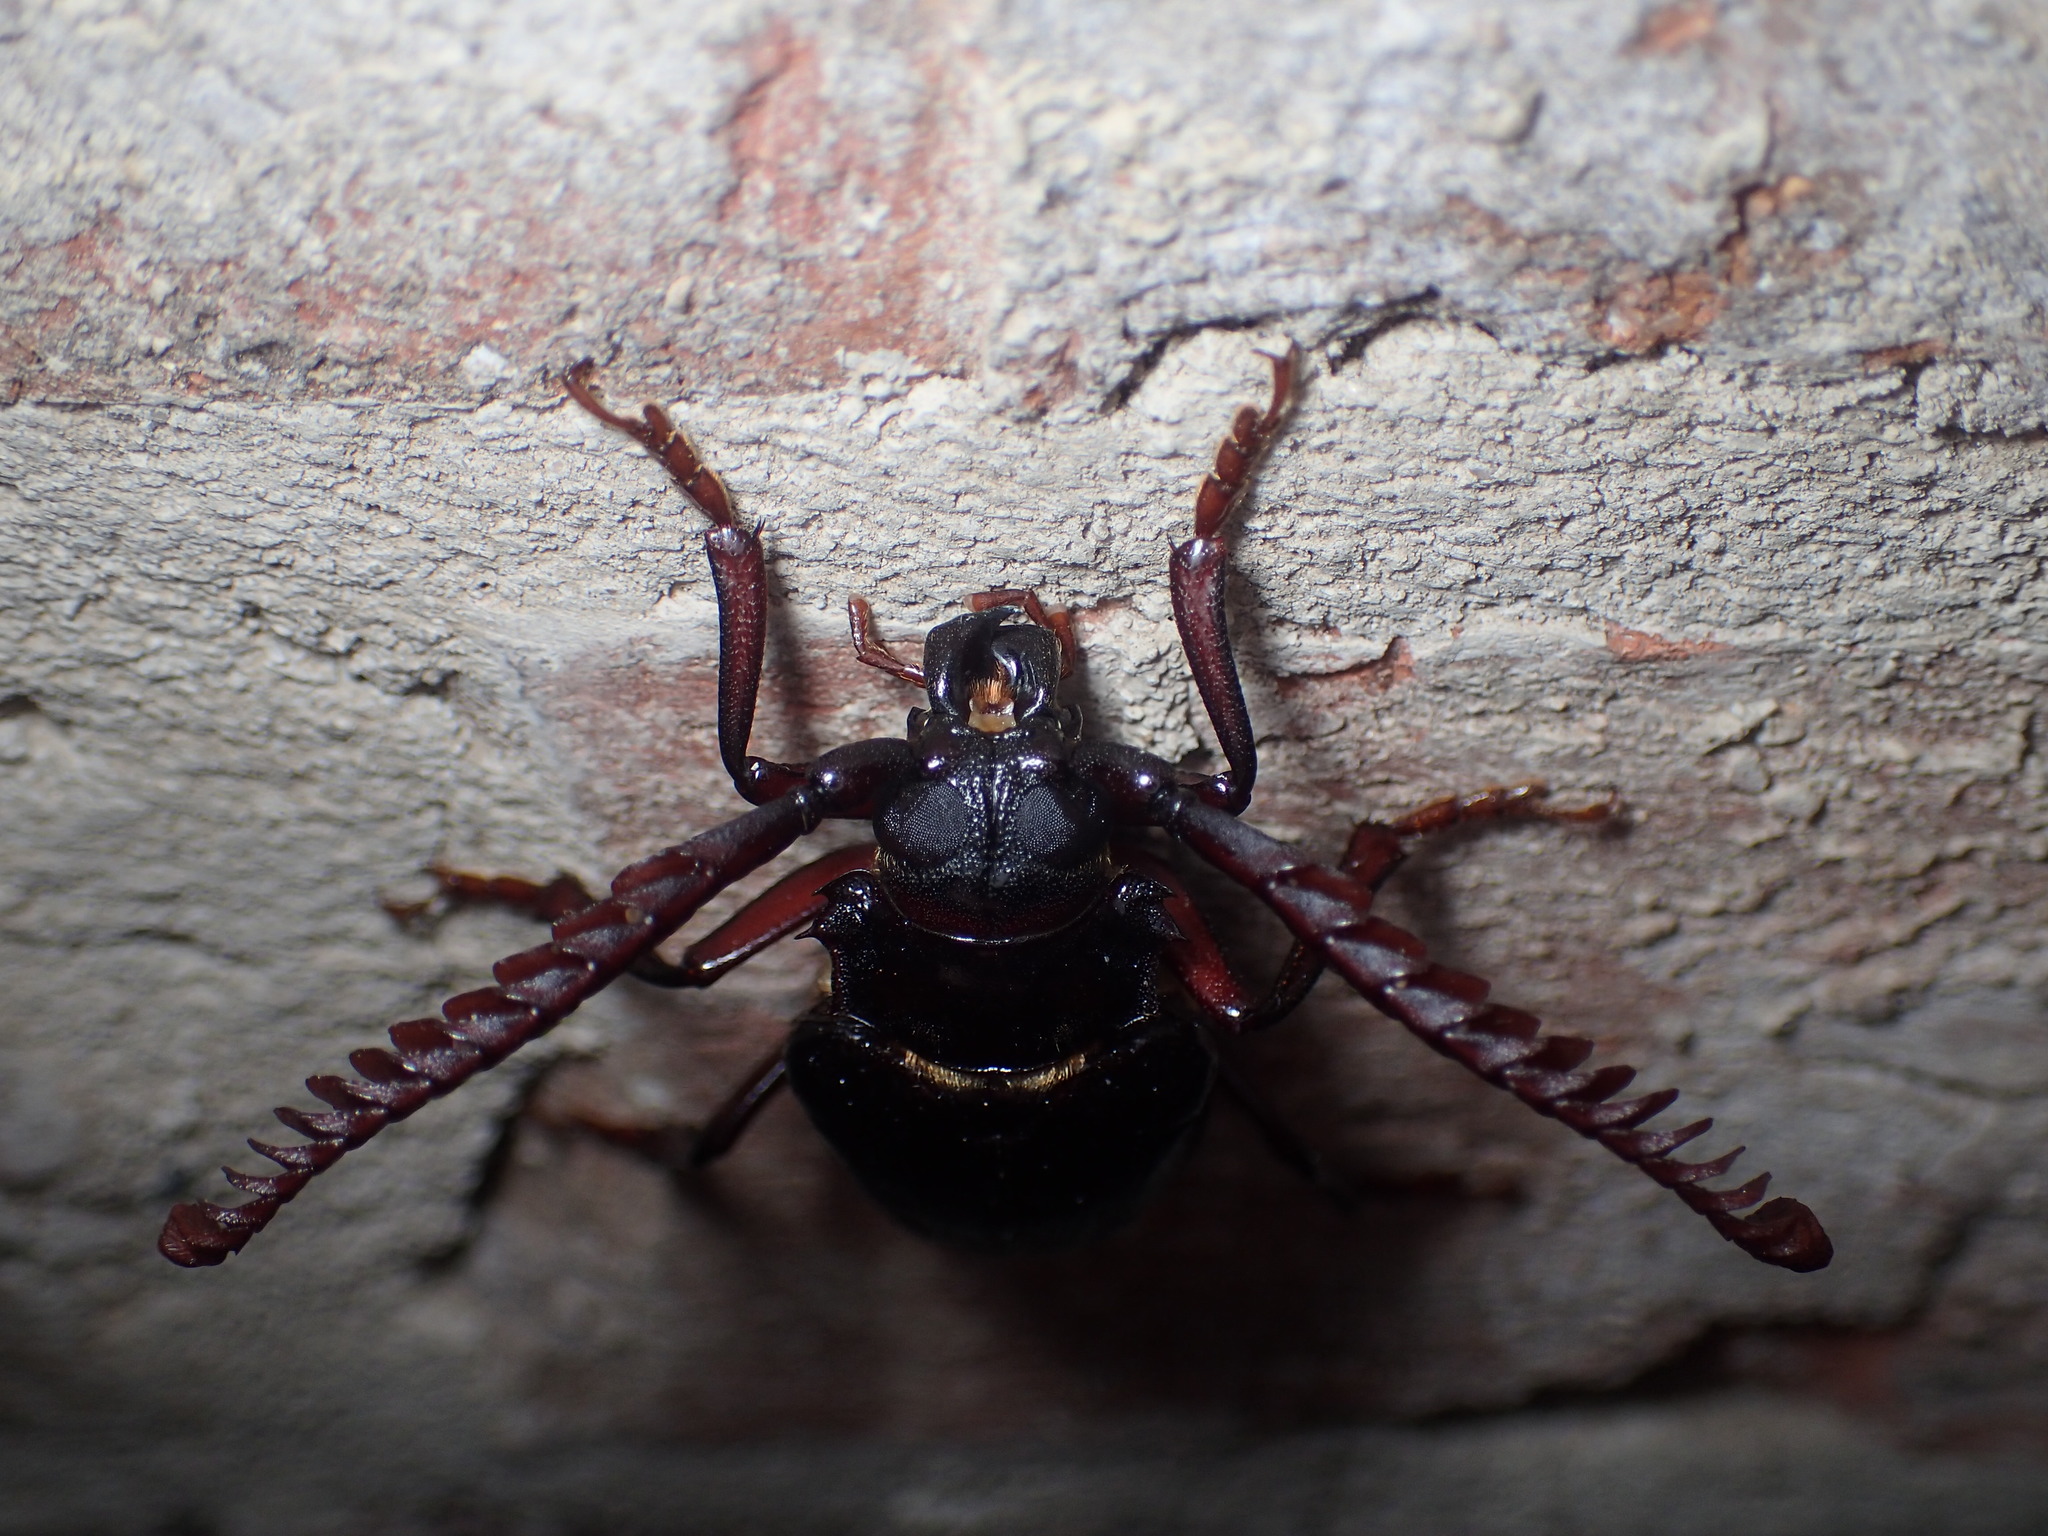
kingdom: Animalia
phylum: Arthropoda
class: Insecta
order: Coleoptera
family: Cerambycidae
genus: Prionus
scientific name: Prionus imbricornis
